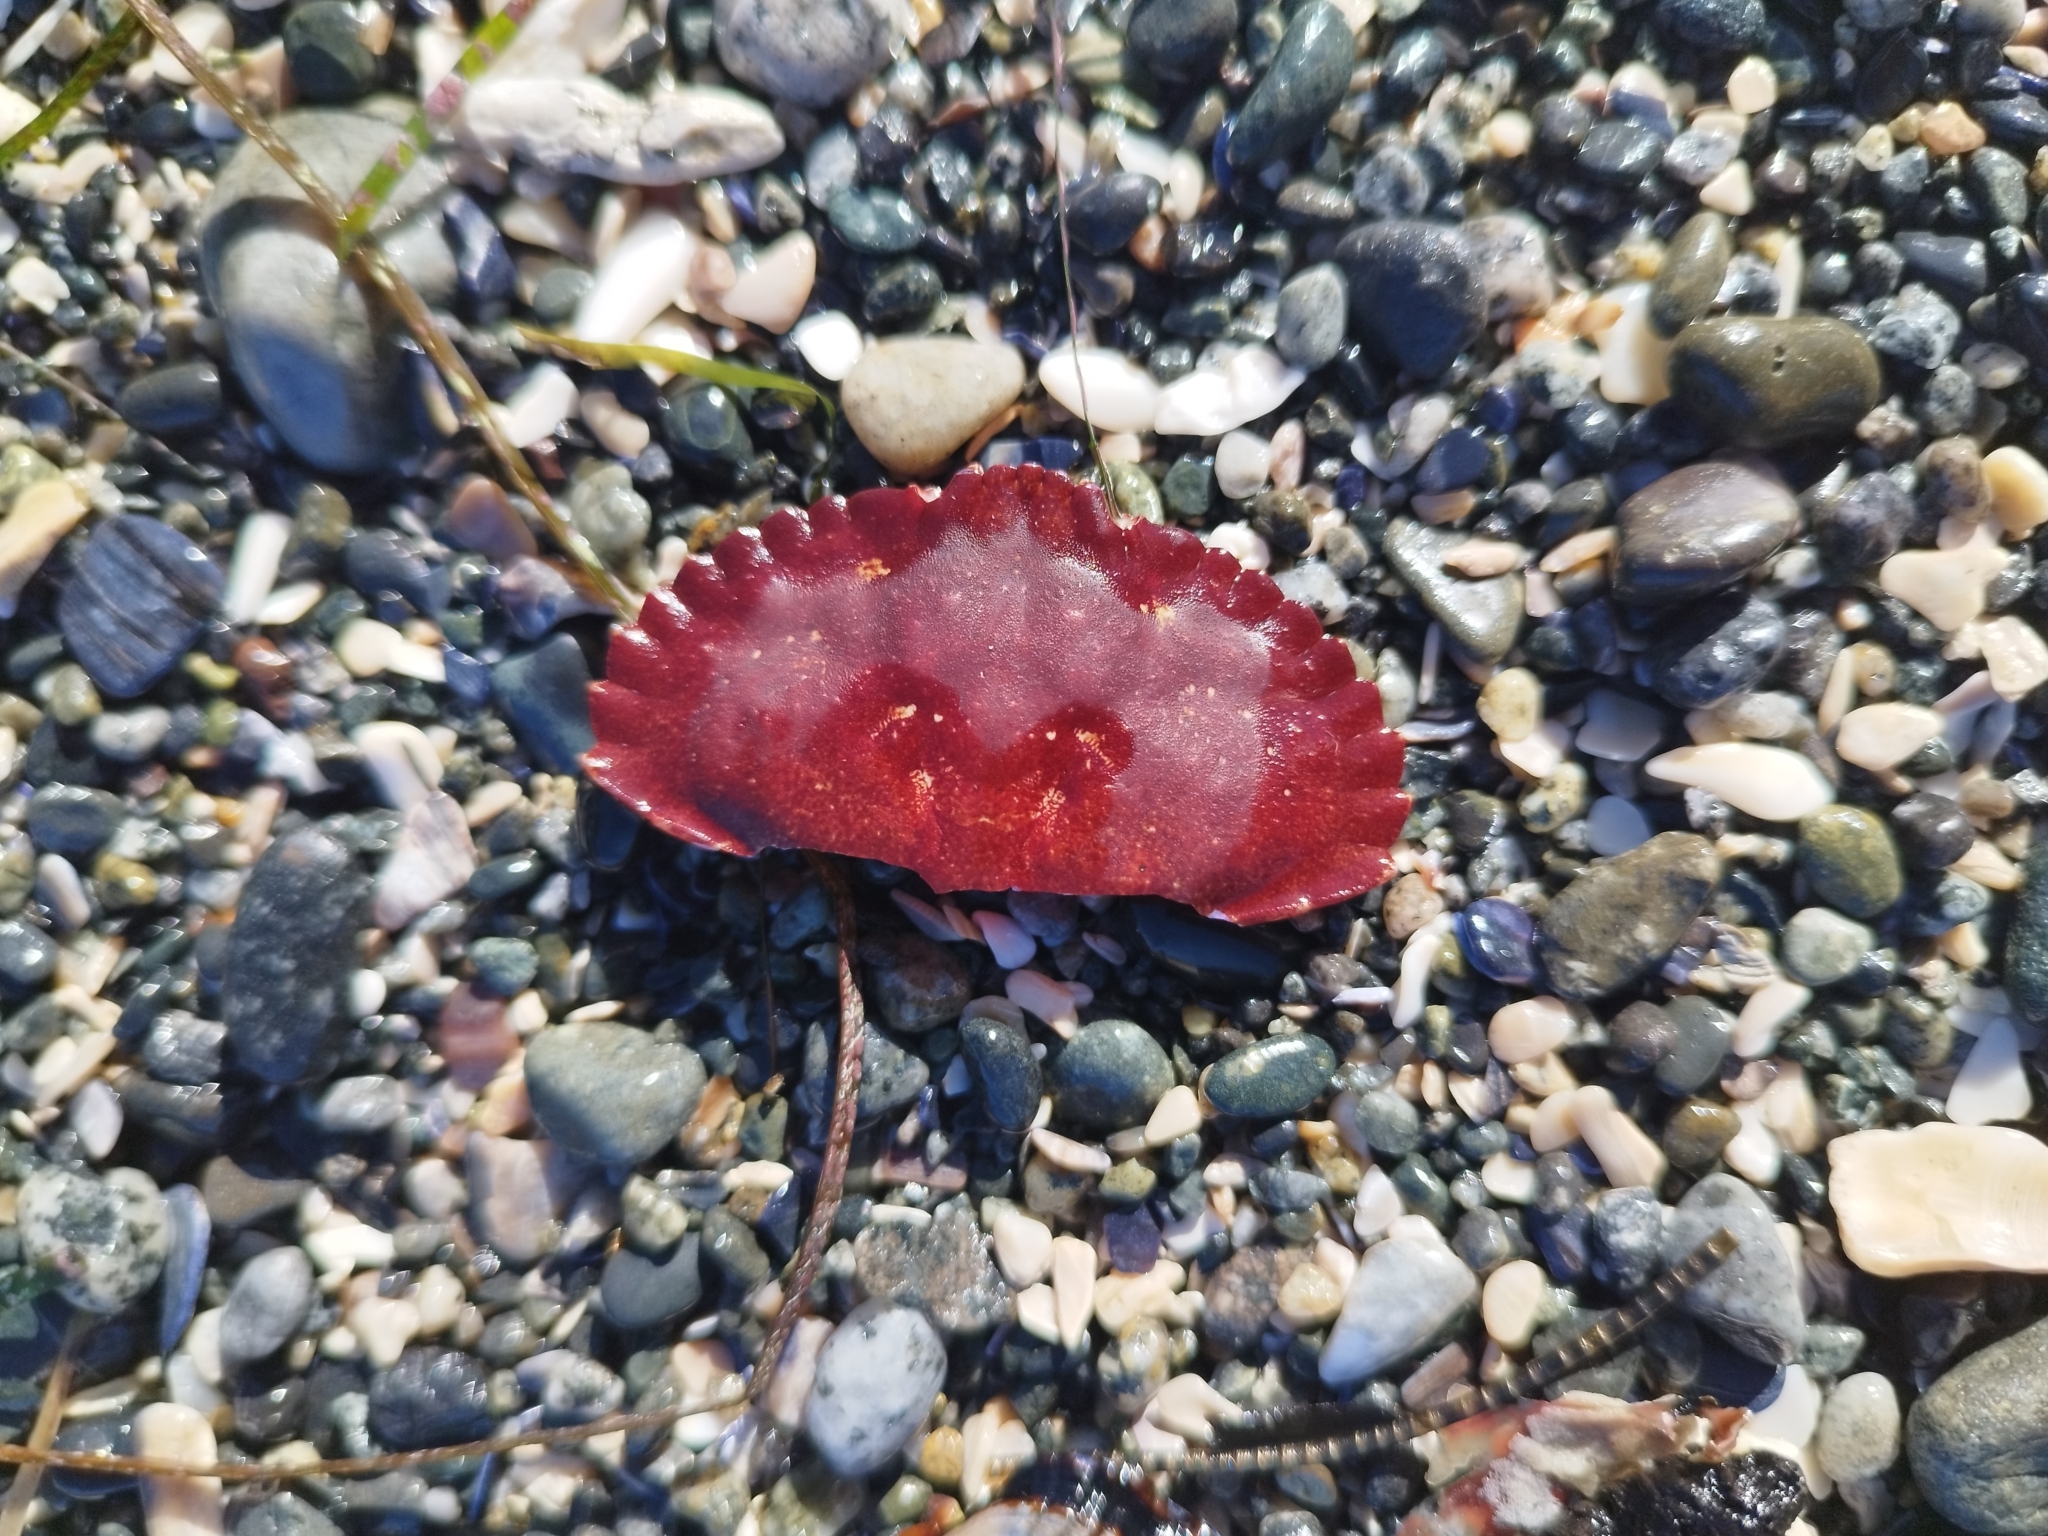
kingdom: Animalia
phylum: Arthropoda
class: Malacostraca
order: Decapoda
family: Cancridae
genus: Cancer
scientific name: Cancer productus
